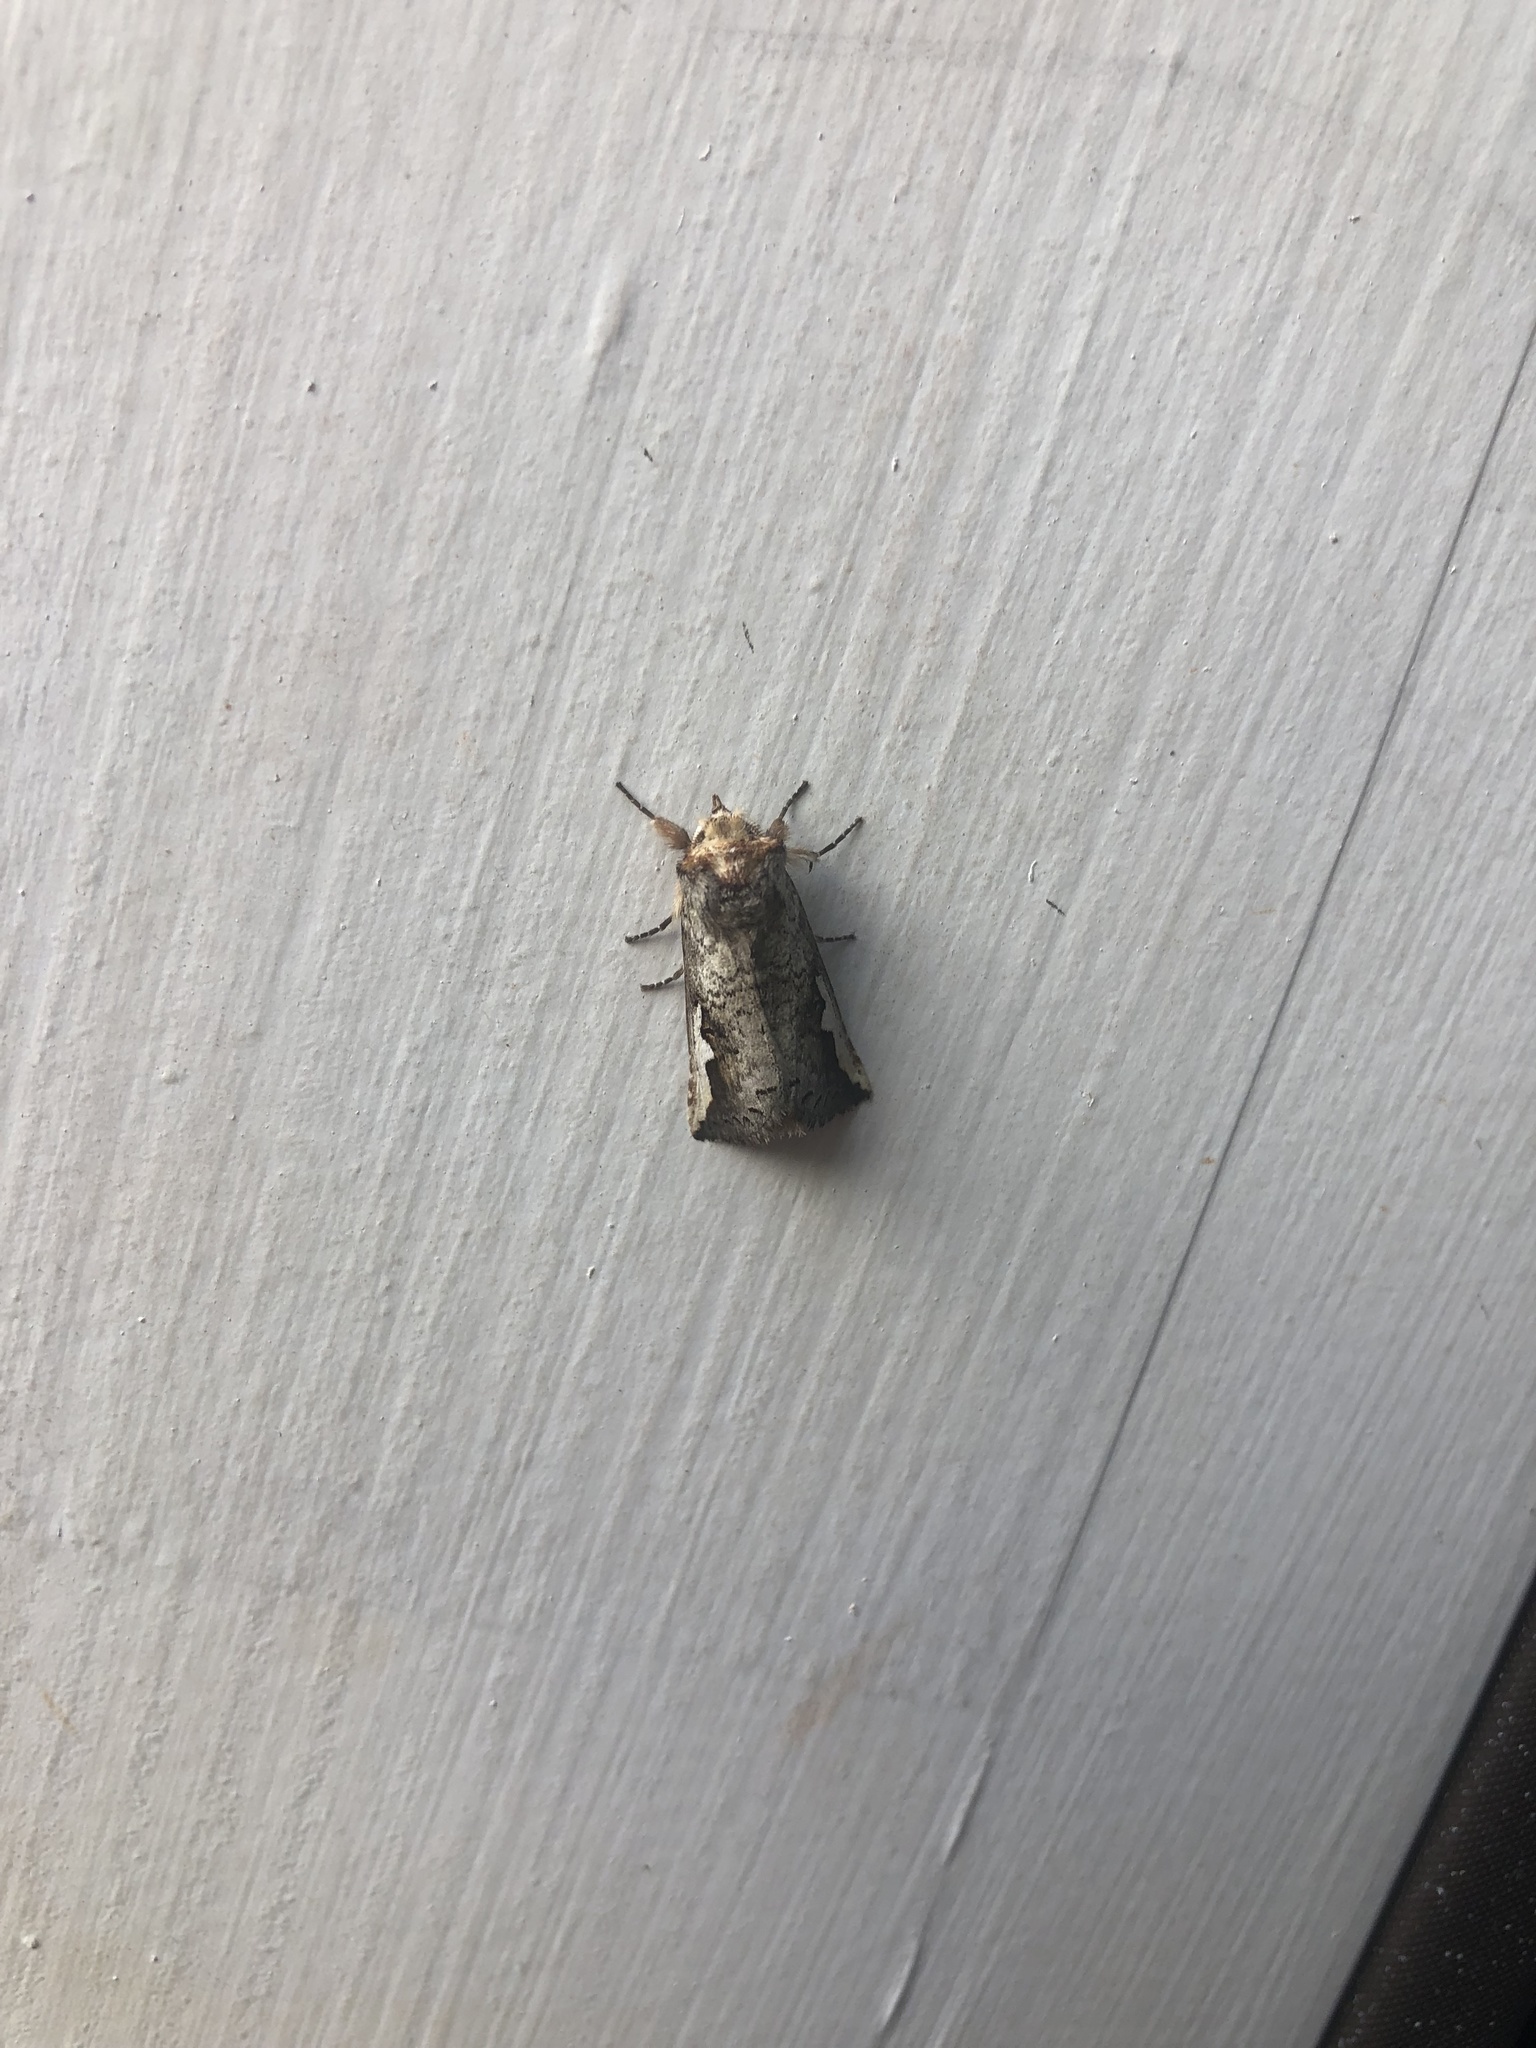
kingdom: Animalia
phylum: Arthropoda
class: Insecta
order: Lepidoptera
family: Notodontidae
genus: Symmerista
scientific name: Symmerista
